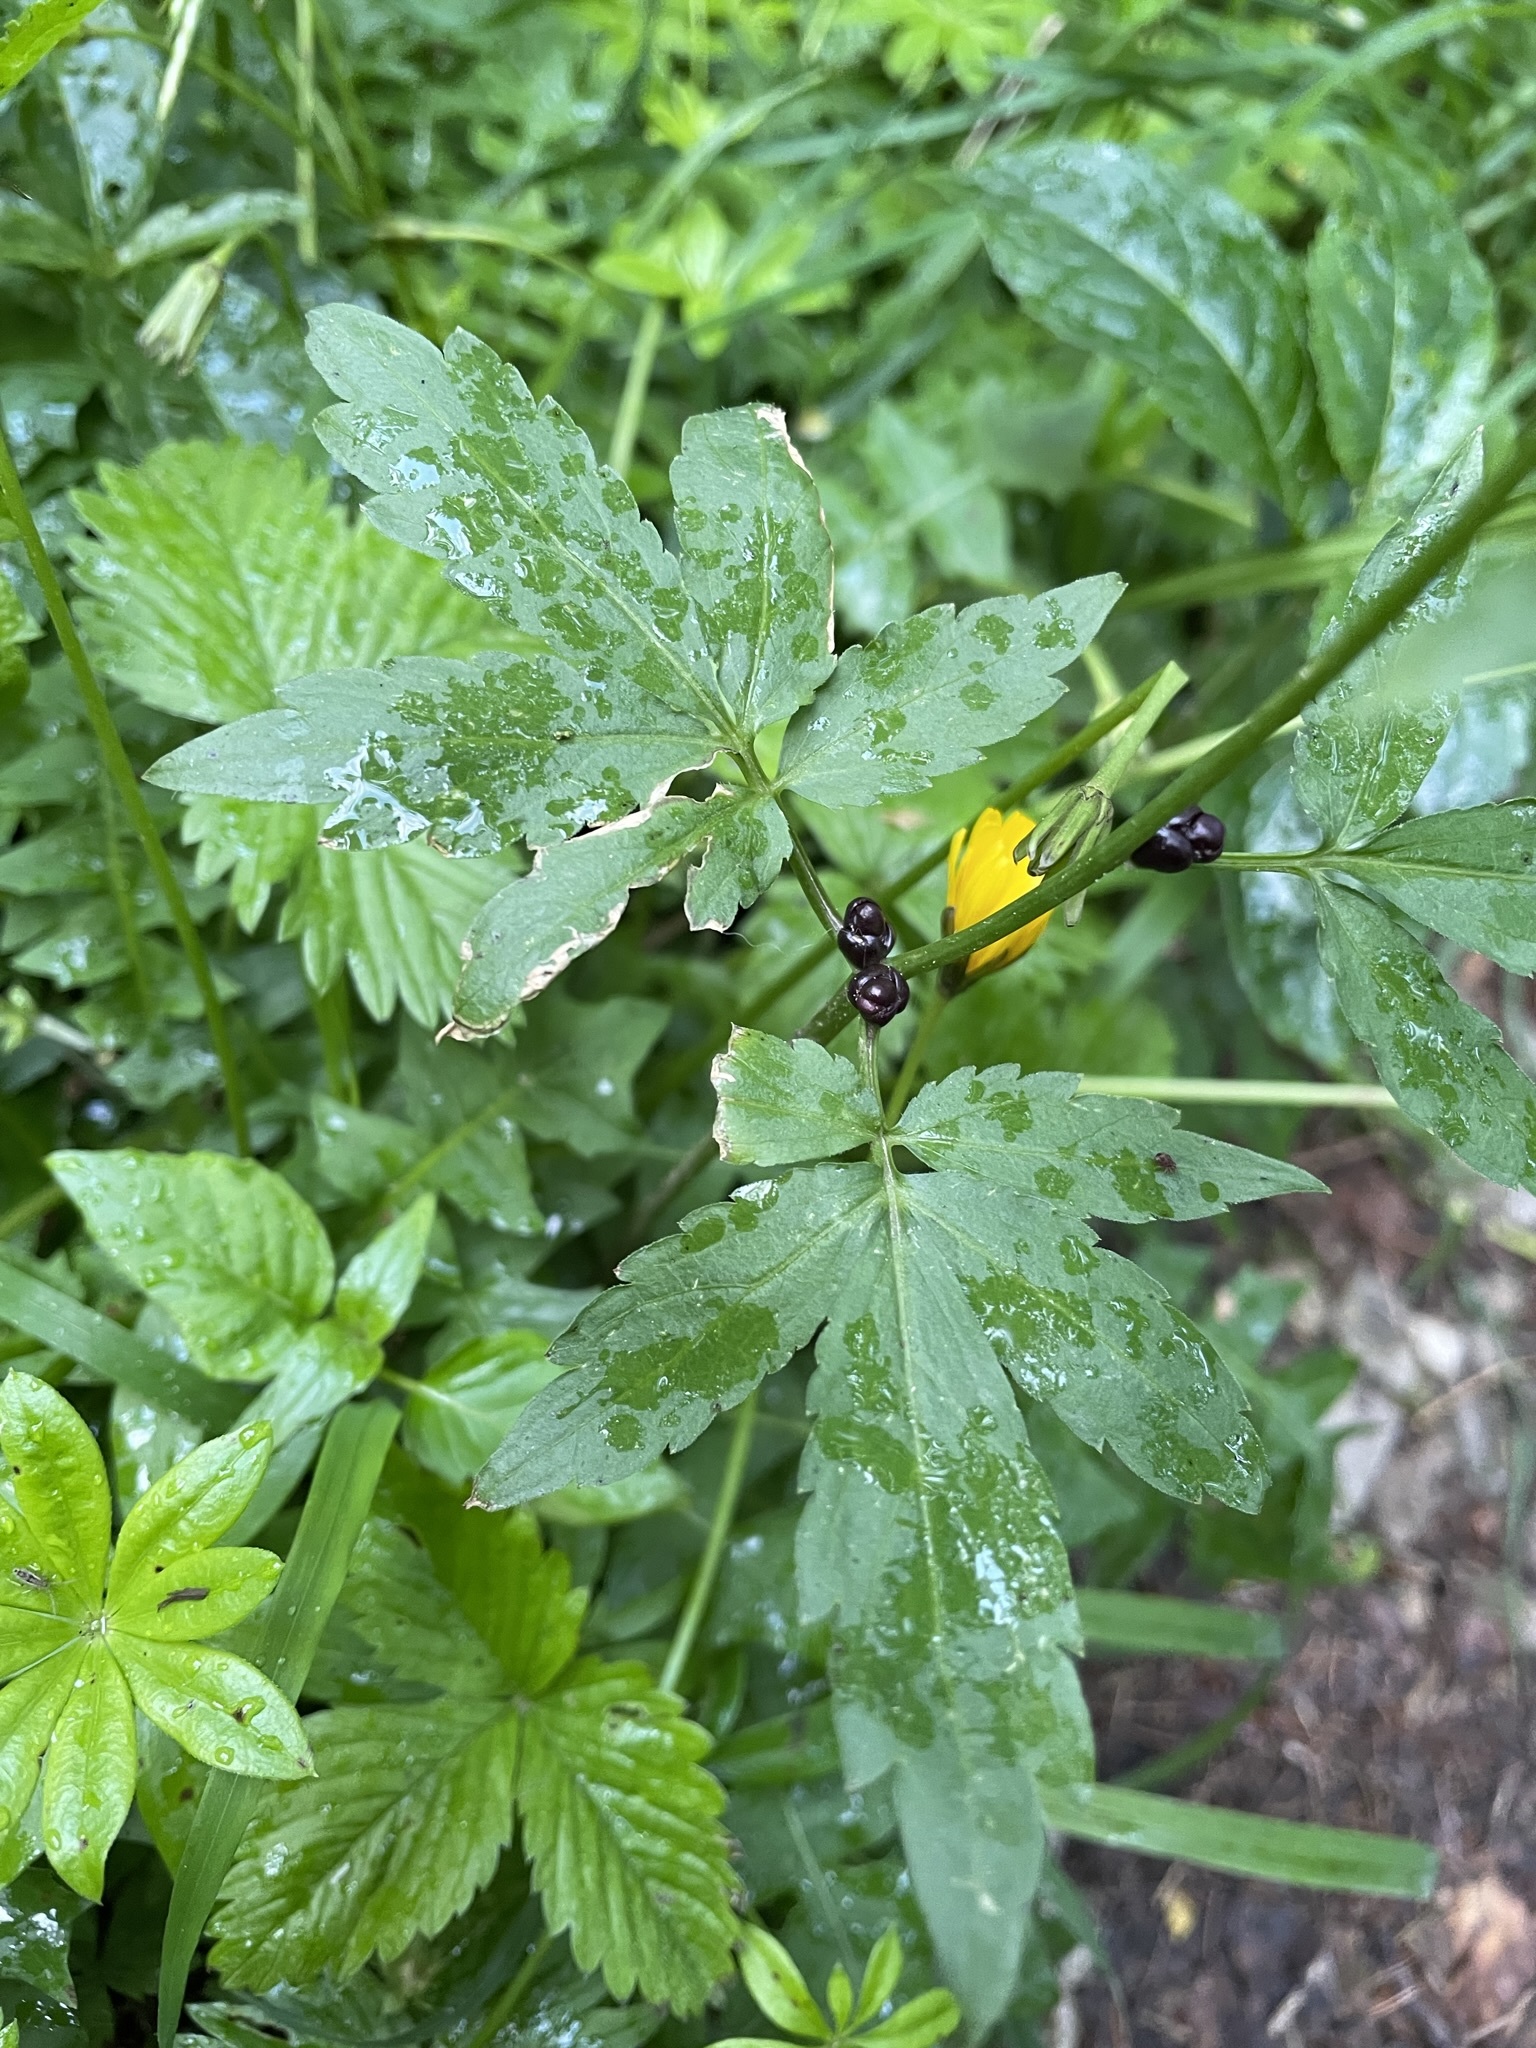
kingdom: Plantae
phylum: Tracheophyta
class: Magnoliopsida
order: Brassicales
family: Brassicaceae
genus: Cardamine
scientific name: Cardamine bulbifera
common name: Coralroot bittercress
